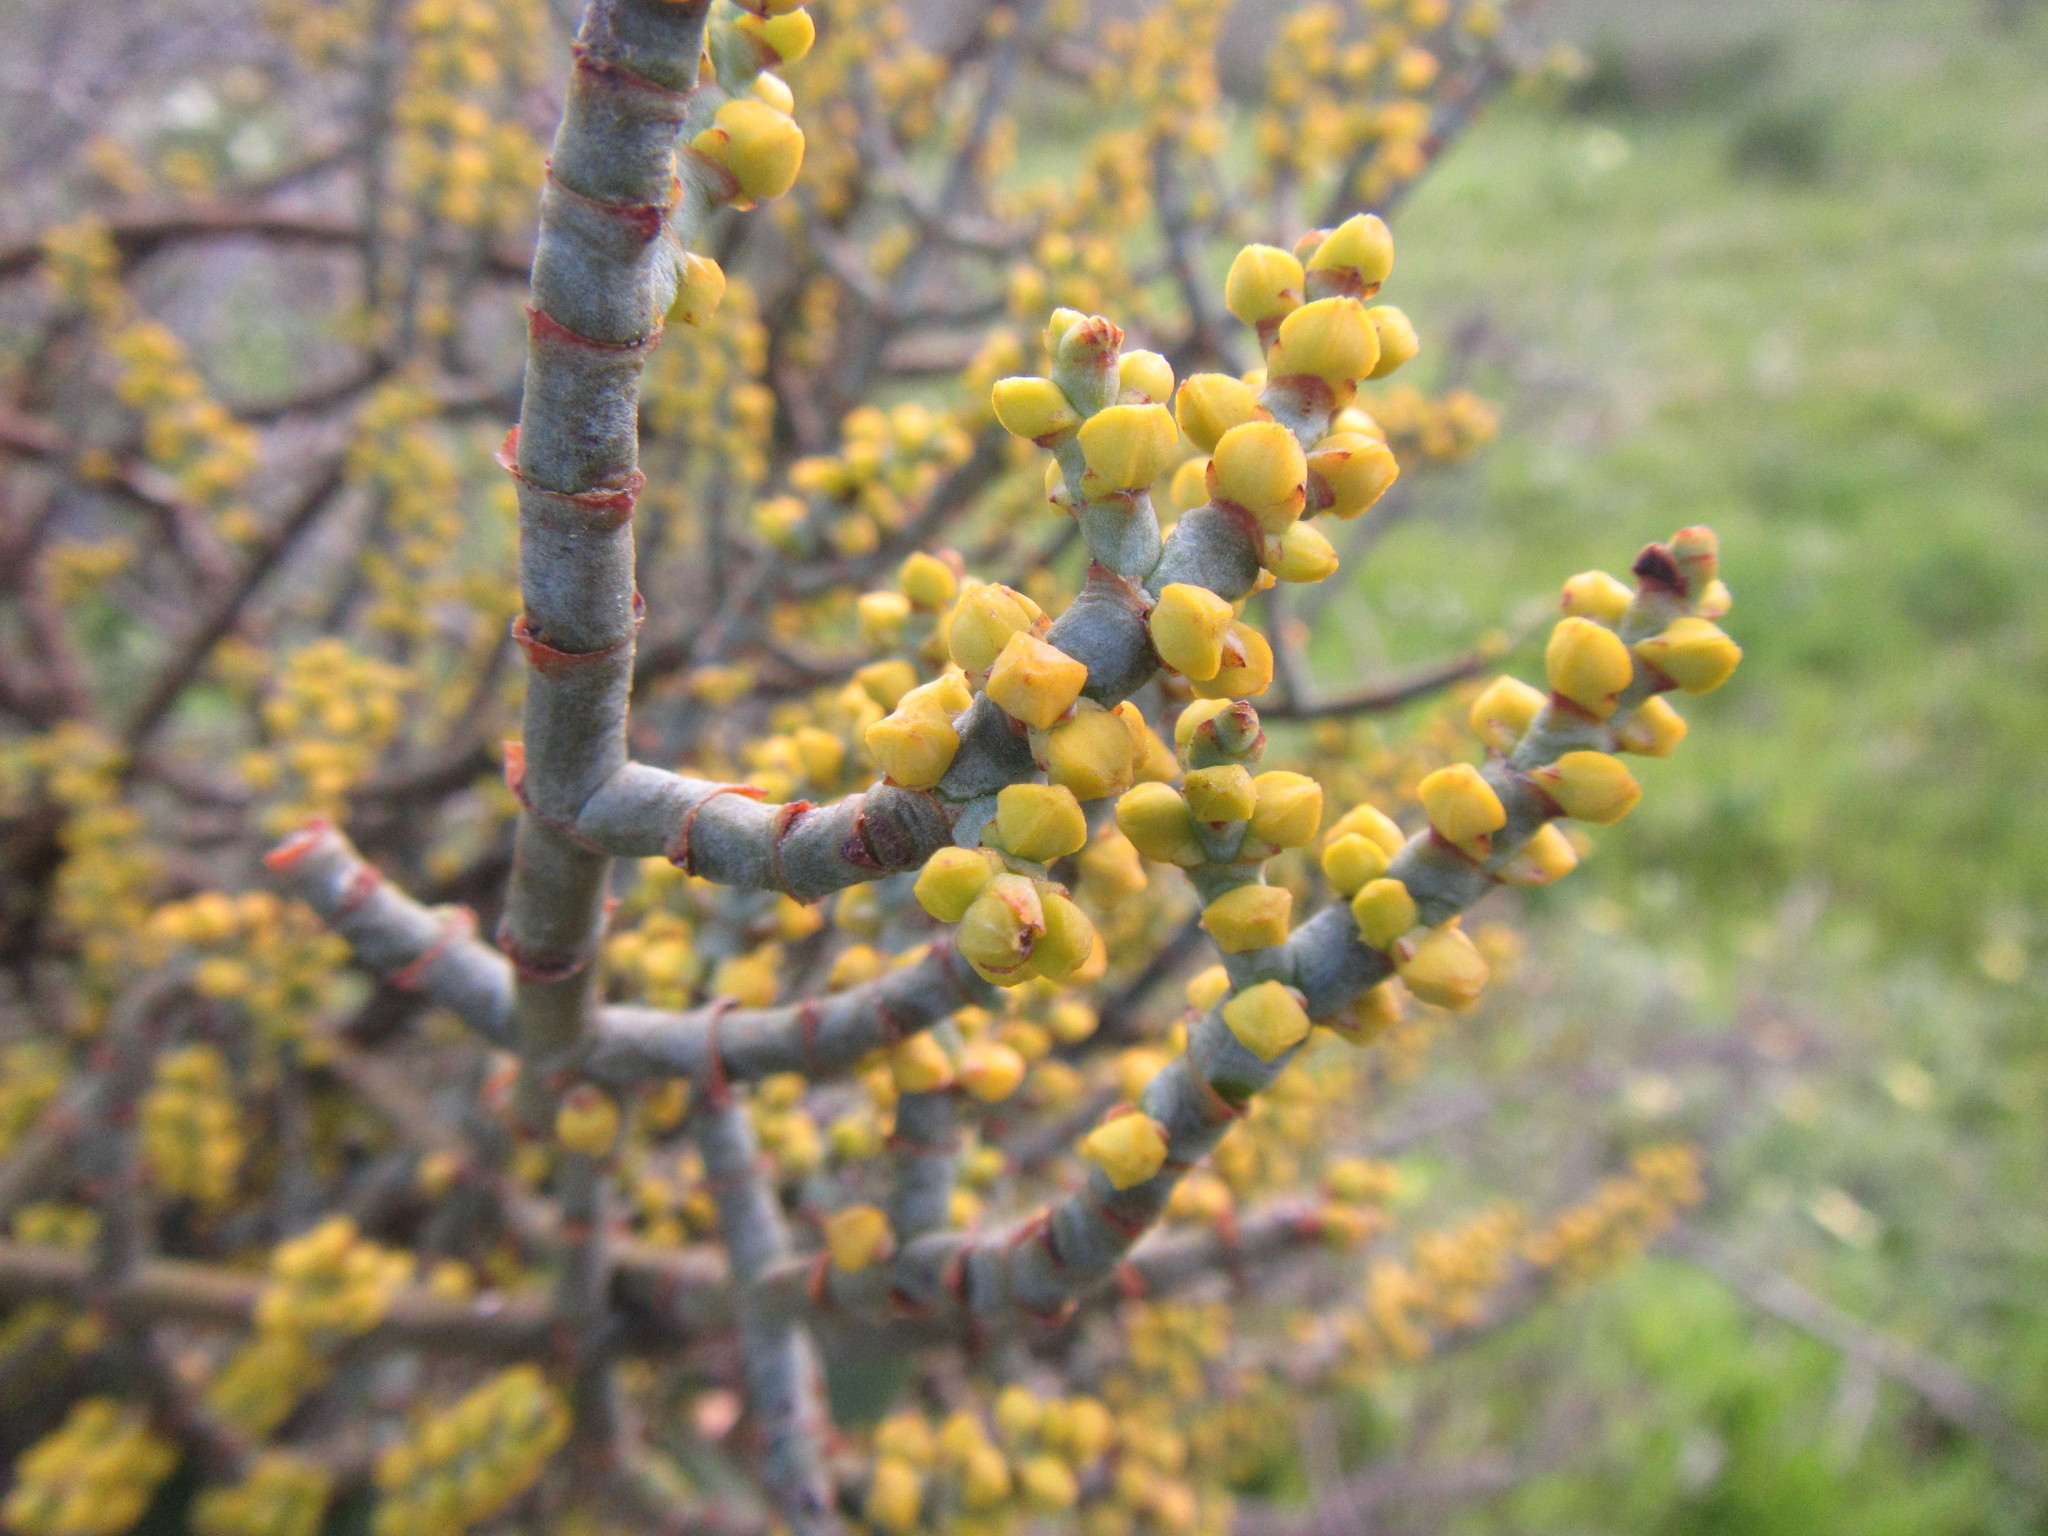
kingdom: Plantae
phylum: Tracheophyta
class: Magnoliopsida
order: Santalales
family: Viscaceae
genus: Viscum
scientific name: Viscum capense
